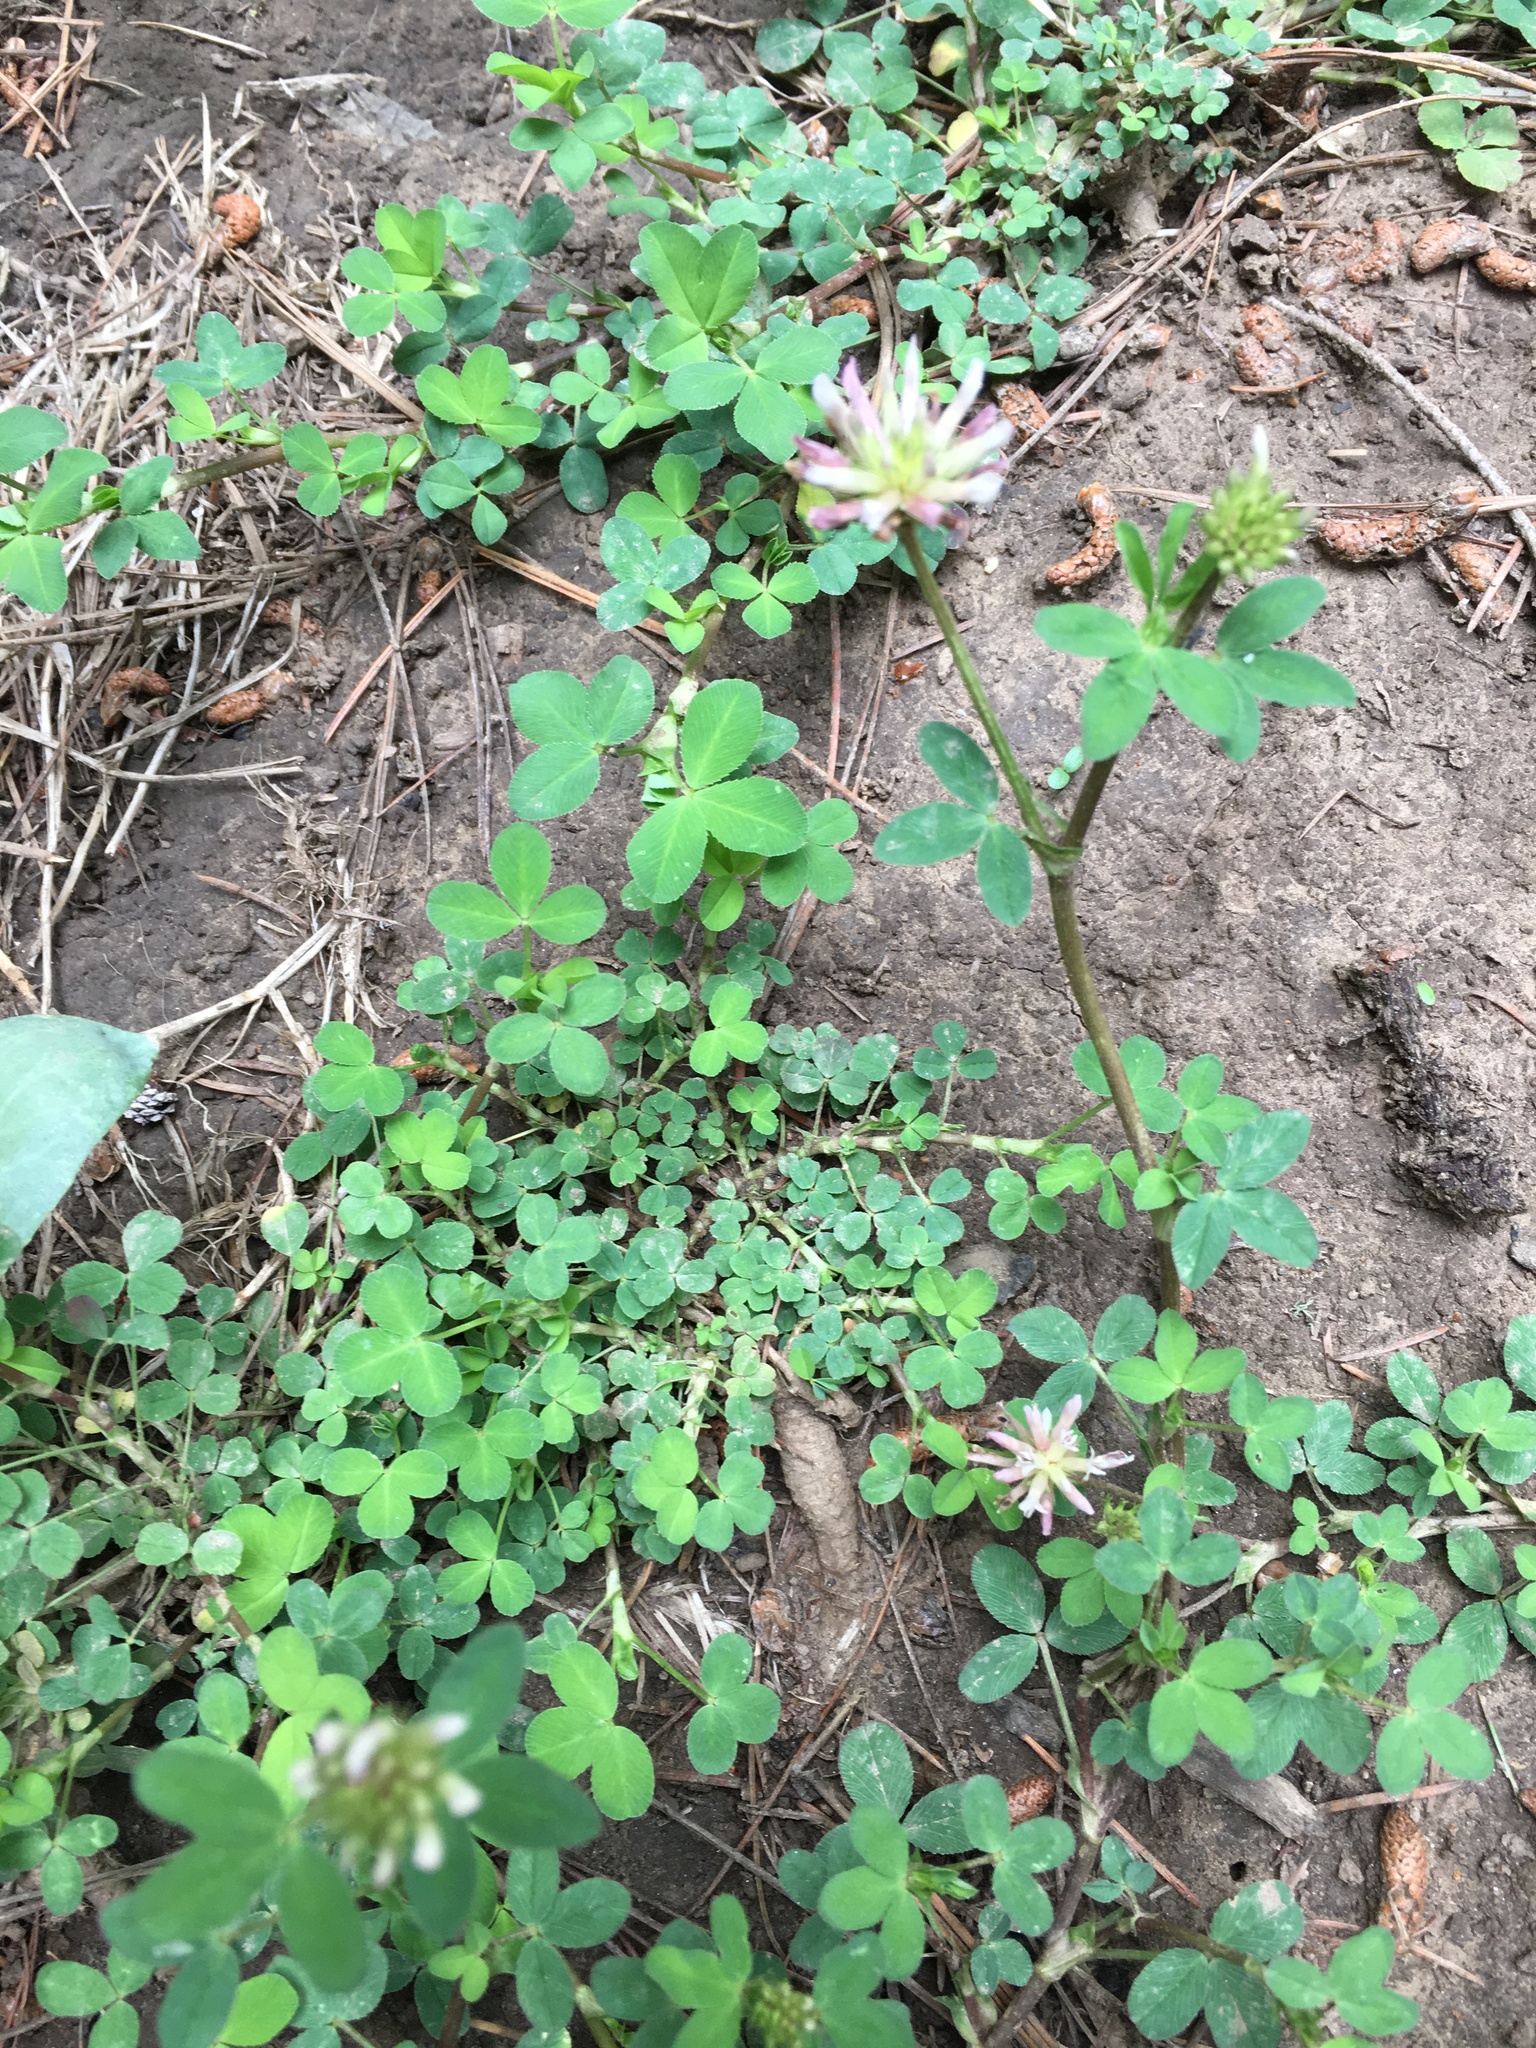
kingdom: Plantae
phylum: Tracheophyta
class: Magnoliopsida
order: Fabales
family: Fabaceae
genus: Trifolium
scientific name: Trifolium wormskioldii
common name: Springbank clover
